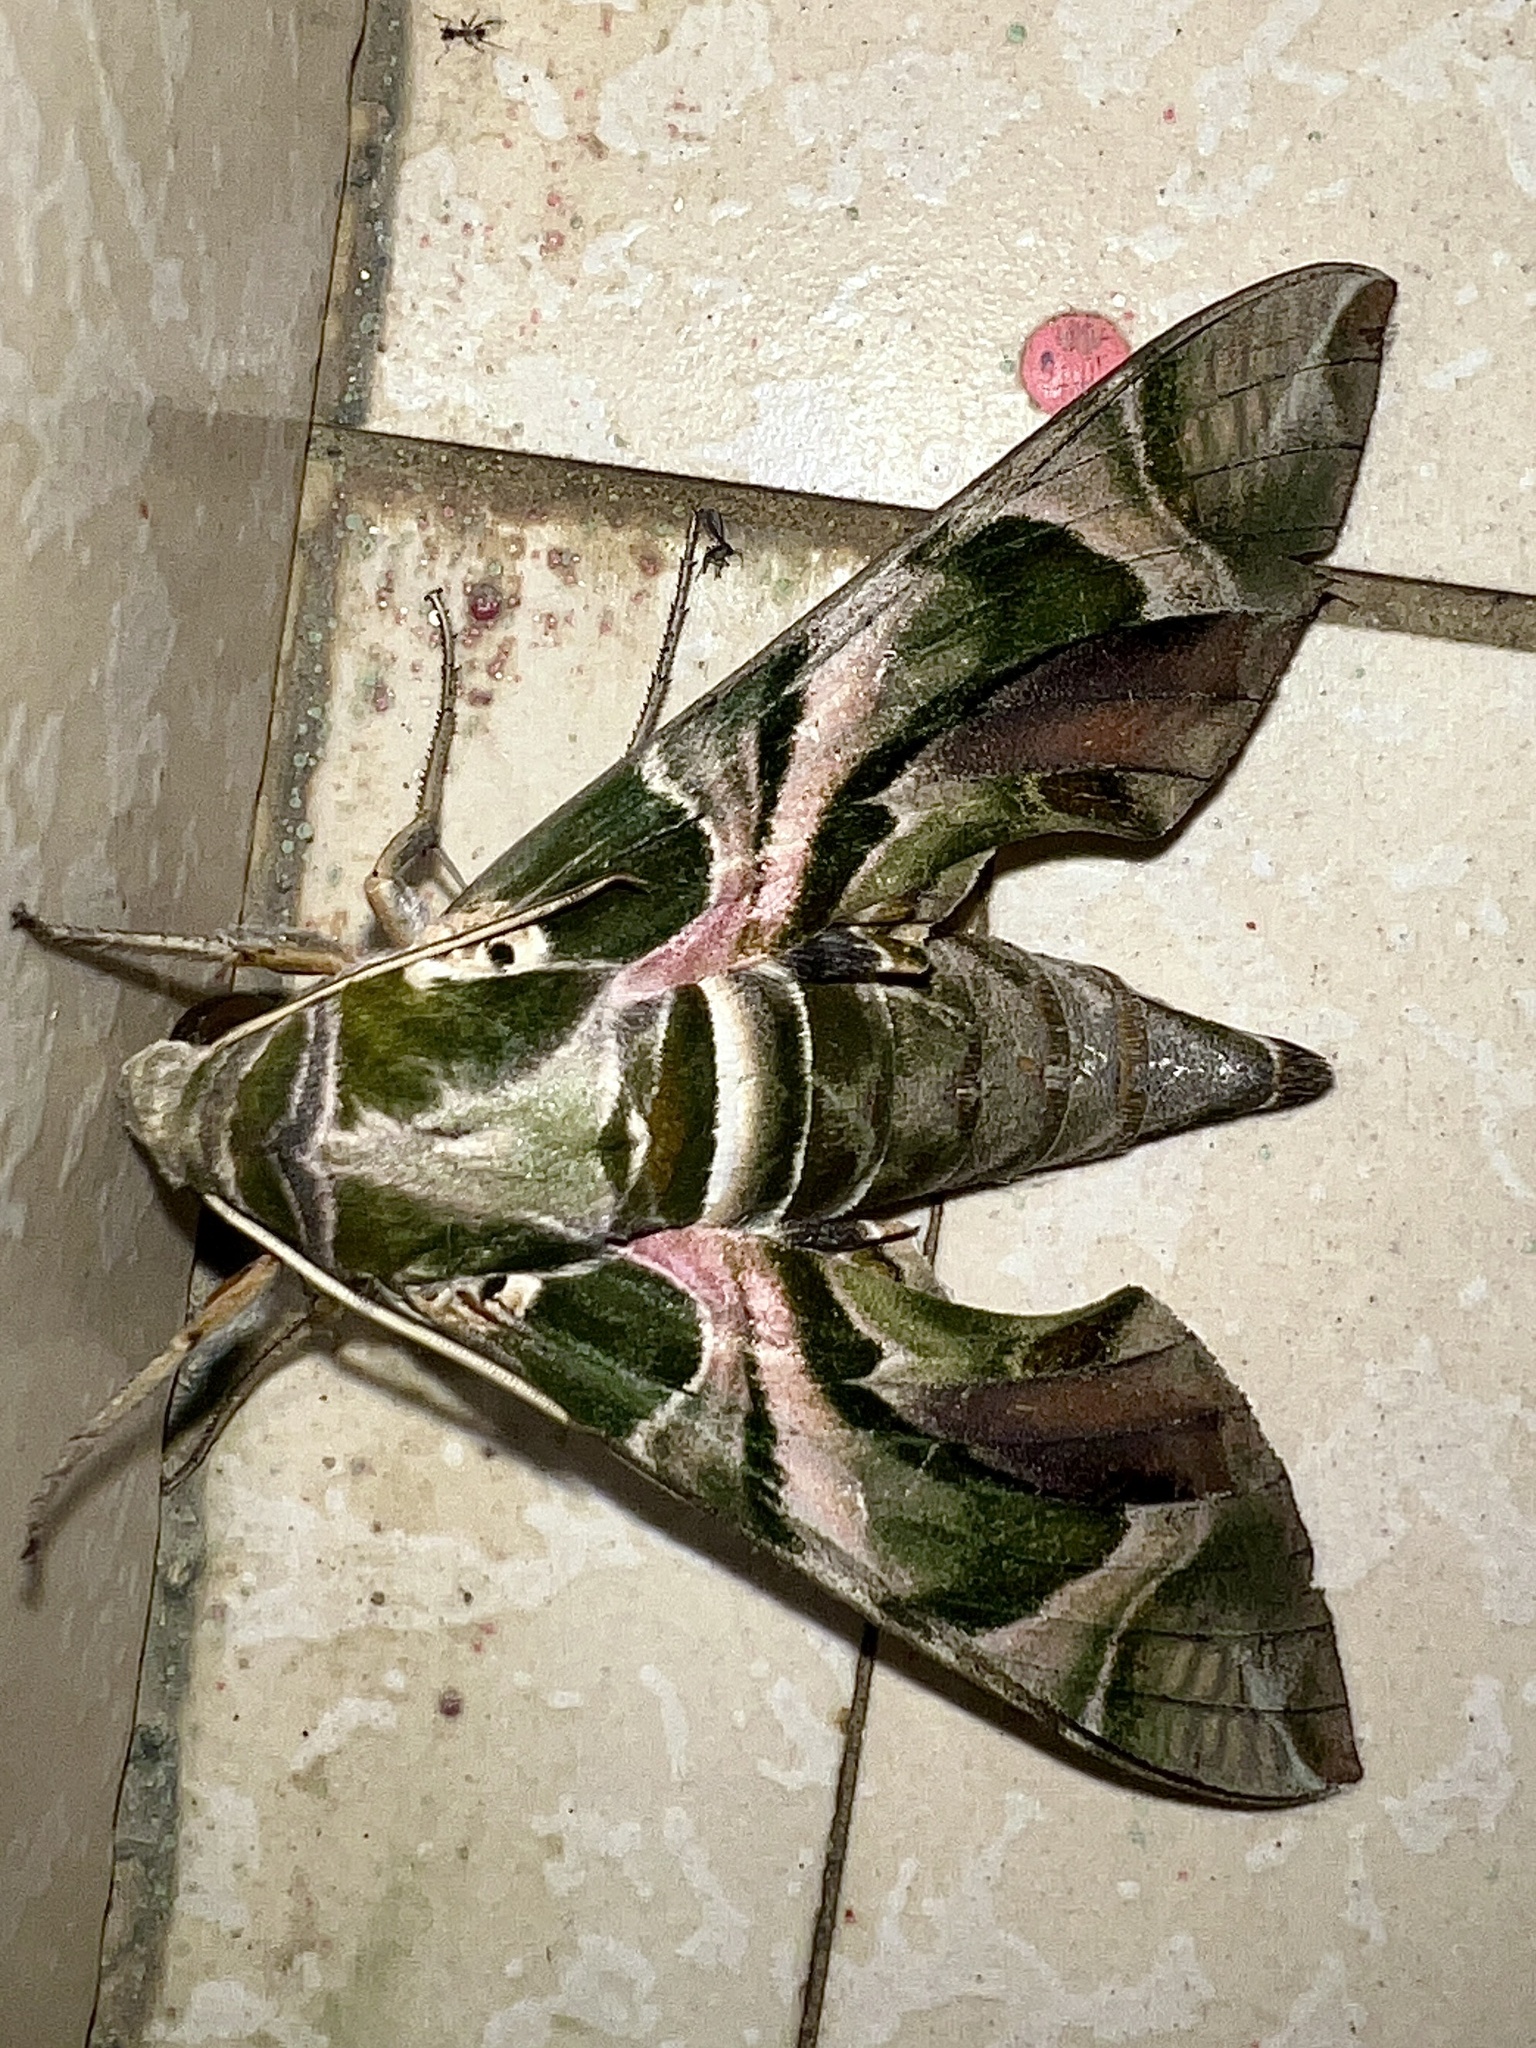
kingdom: Animalia
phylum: Arthropoda
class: Insecta
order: Lepidoptera
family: Sphingidae
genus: Daphnis
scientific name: Daphnis nerii
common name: Oleander hawk-moth
